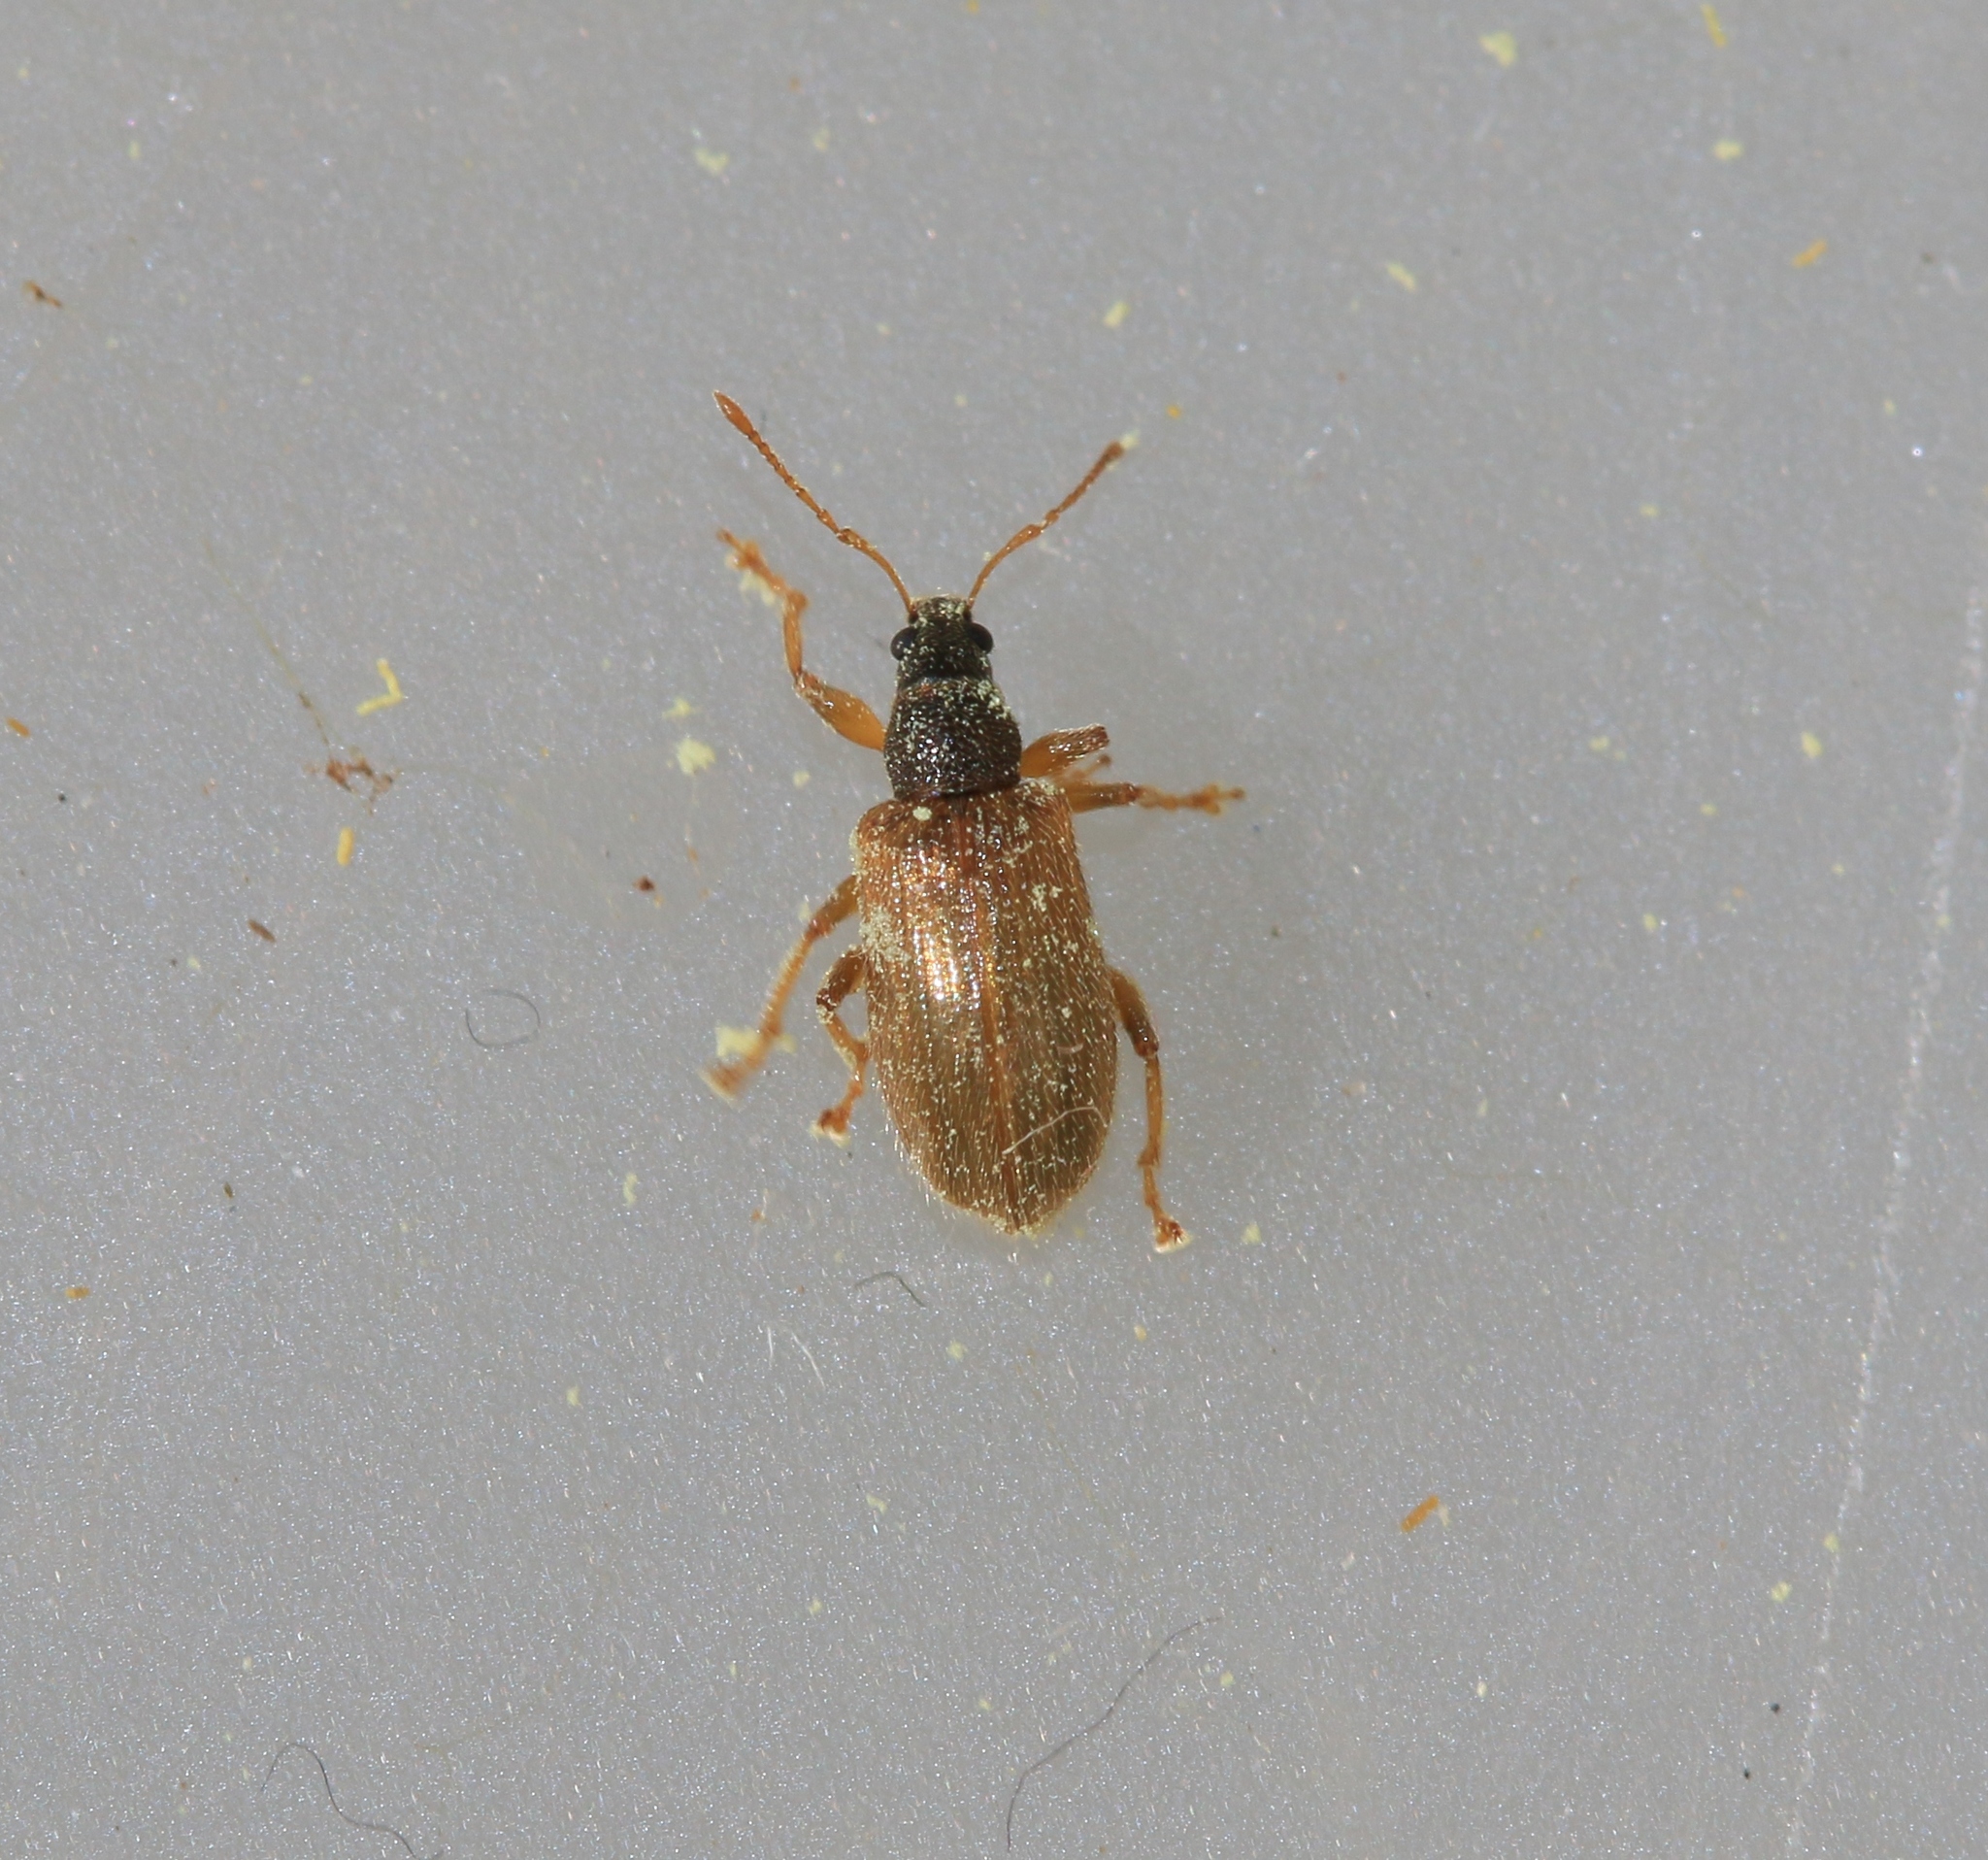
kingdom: Animalia
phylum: Arthropoda
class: Insecta
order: Coleoptera
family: Curculionidae
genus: Phyllobius
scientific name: Phyllobius oblongus
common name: Brown leaf weevil
